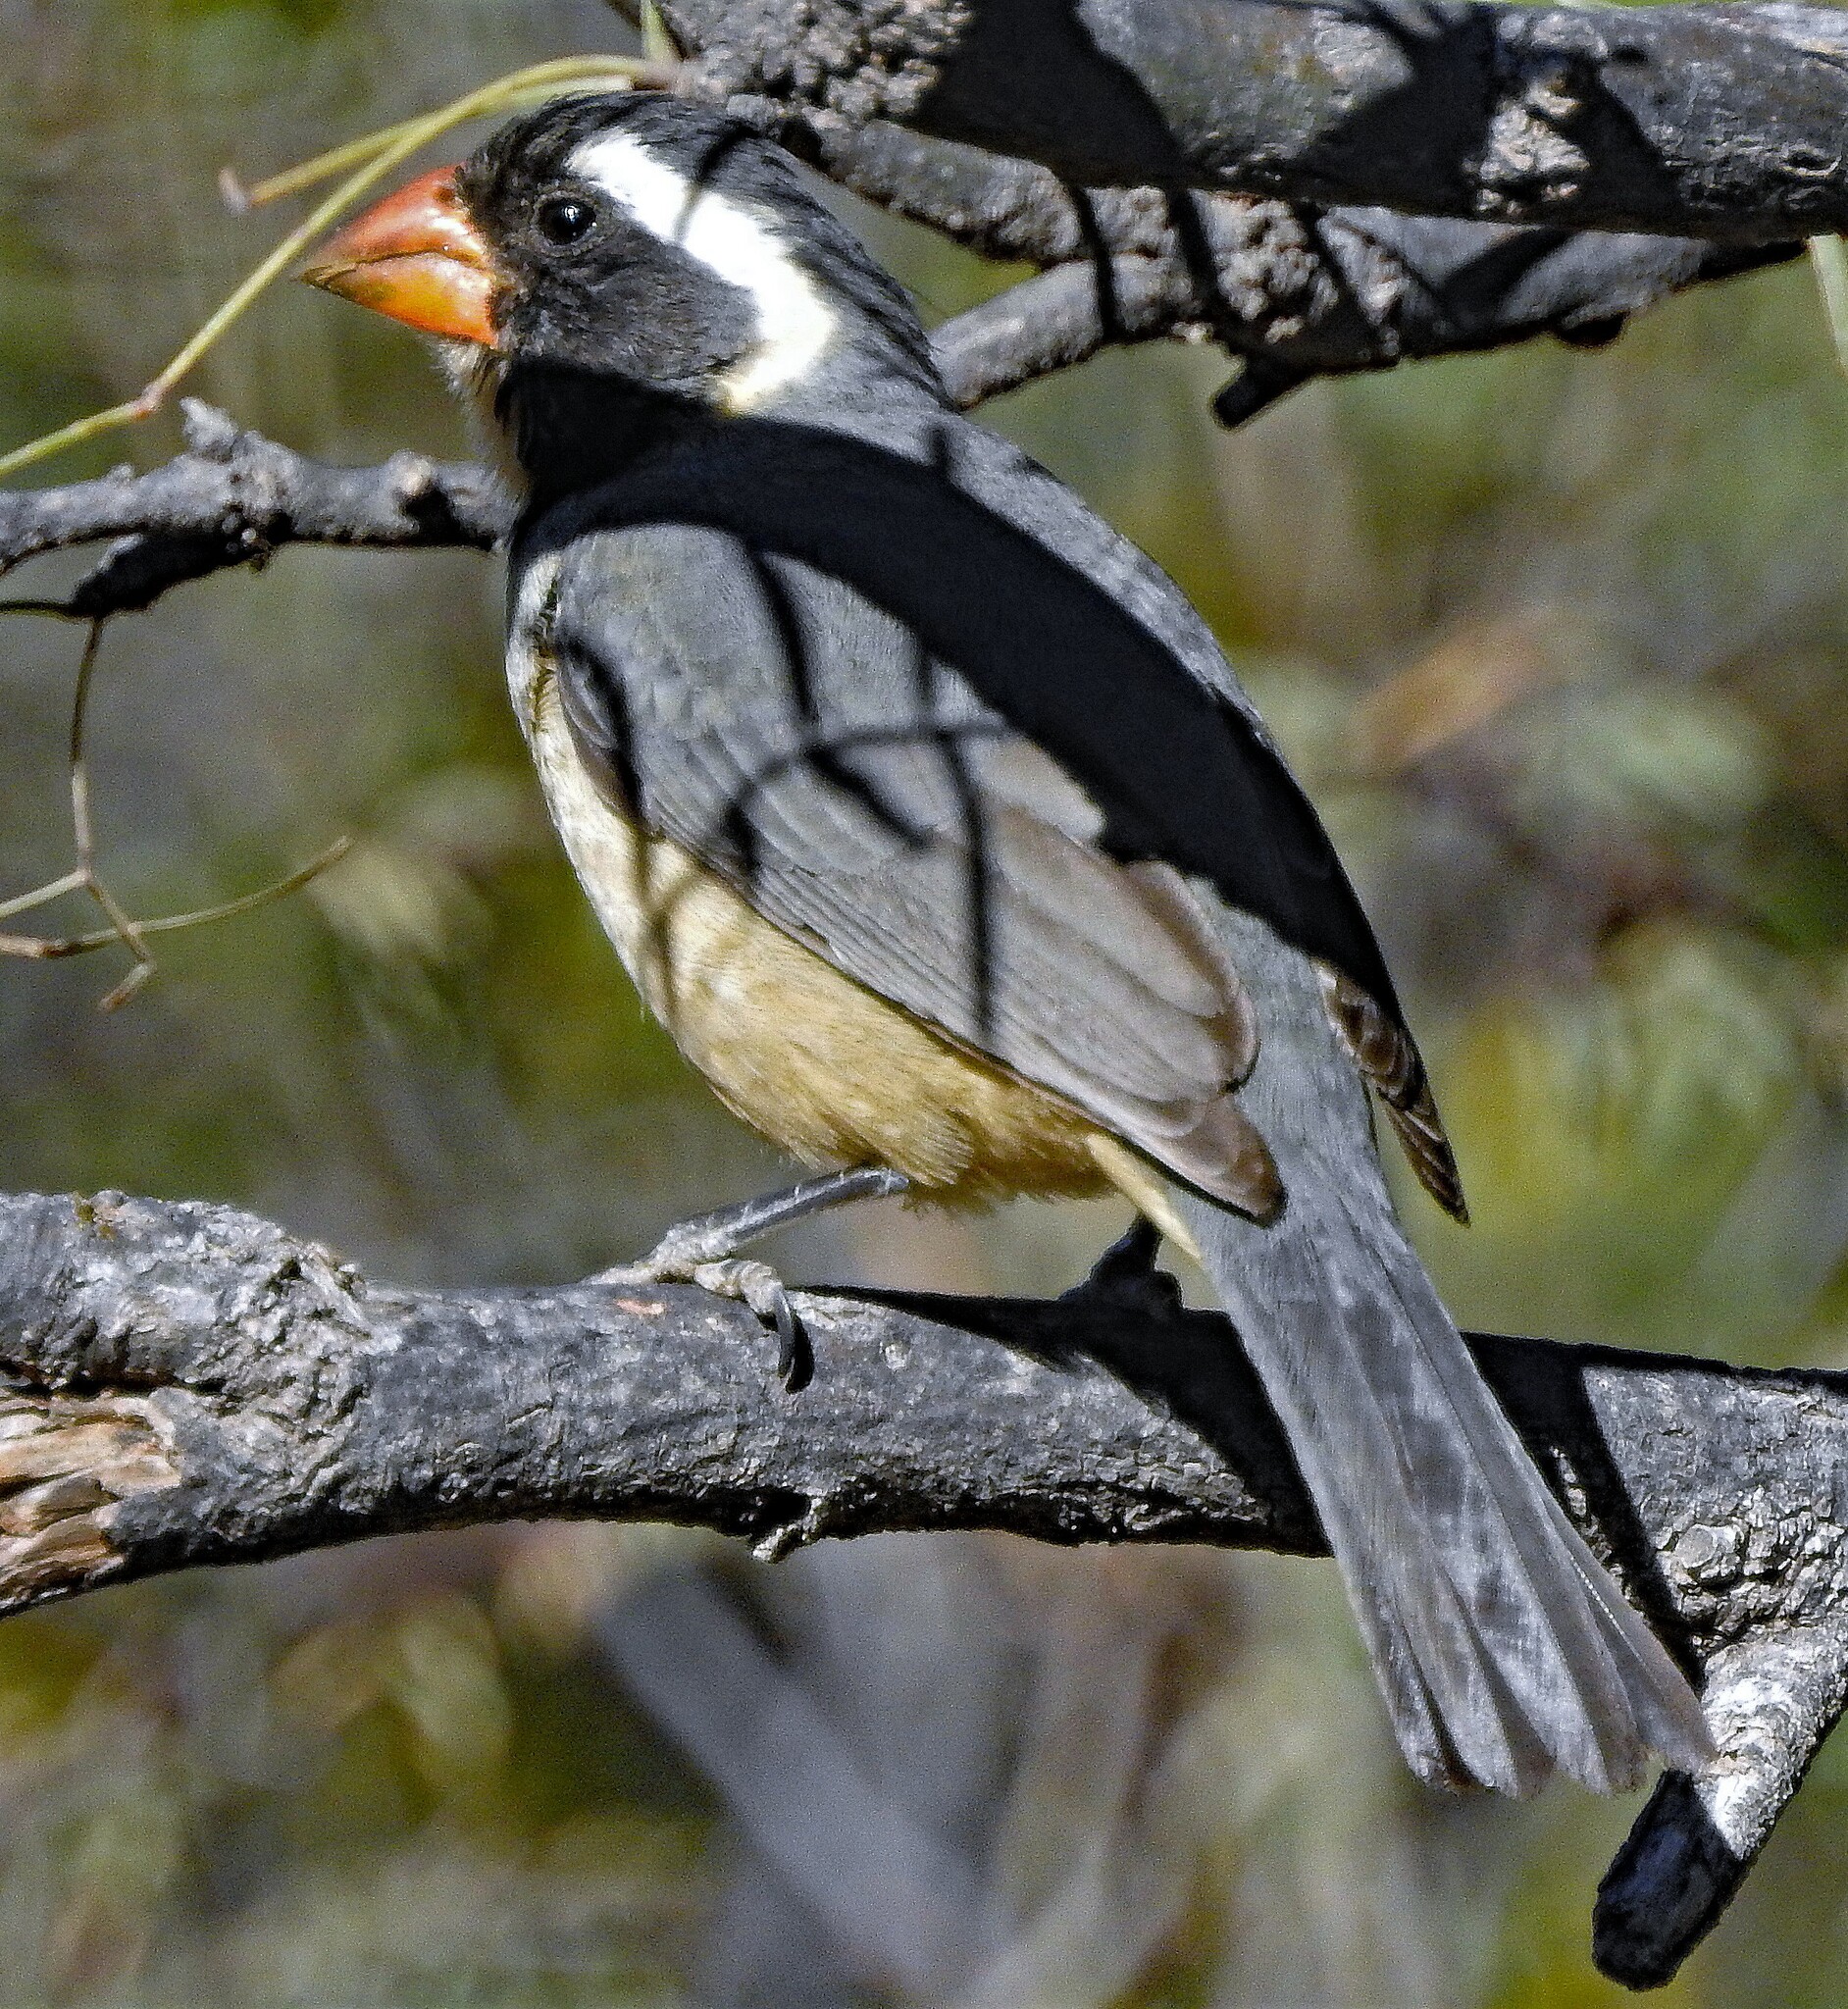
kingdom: Animalia
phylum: Chordata
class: Aves
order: Passeriformes
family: Thraupidae
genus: Saltator
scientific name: Saltator aurantiirostris
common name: Golden-billed saltator
